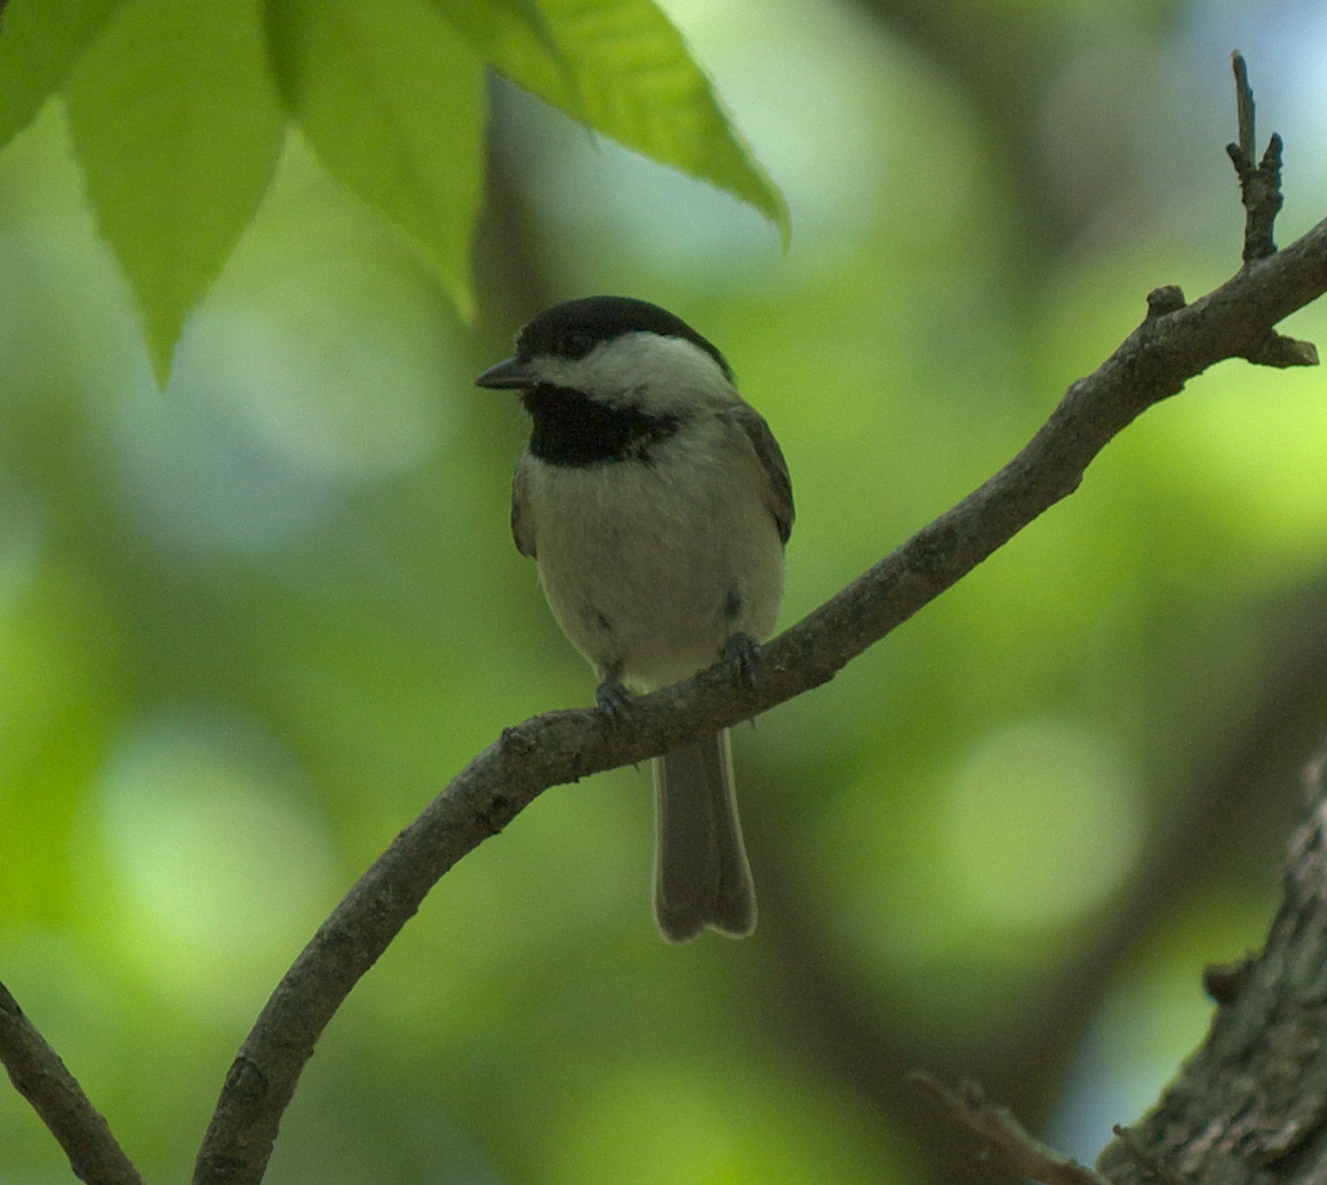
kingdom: Animalia
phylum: Chordata
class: Aves
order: Passeriformes
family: Paridae
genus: Poecile
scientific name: Poecile carolinensis
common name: Carolina chickadee
